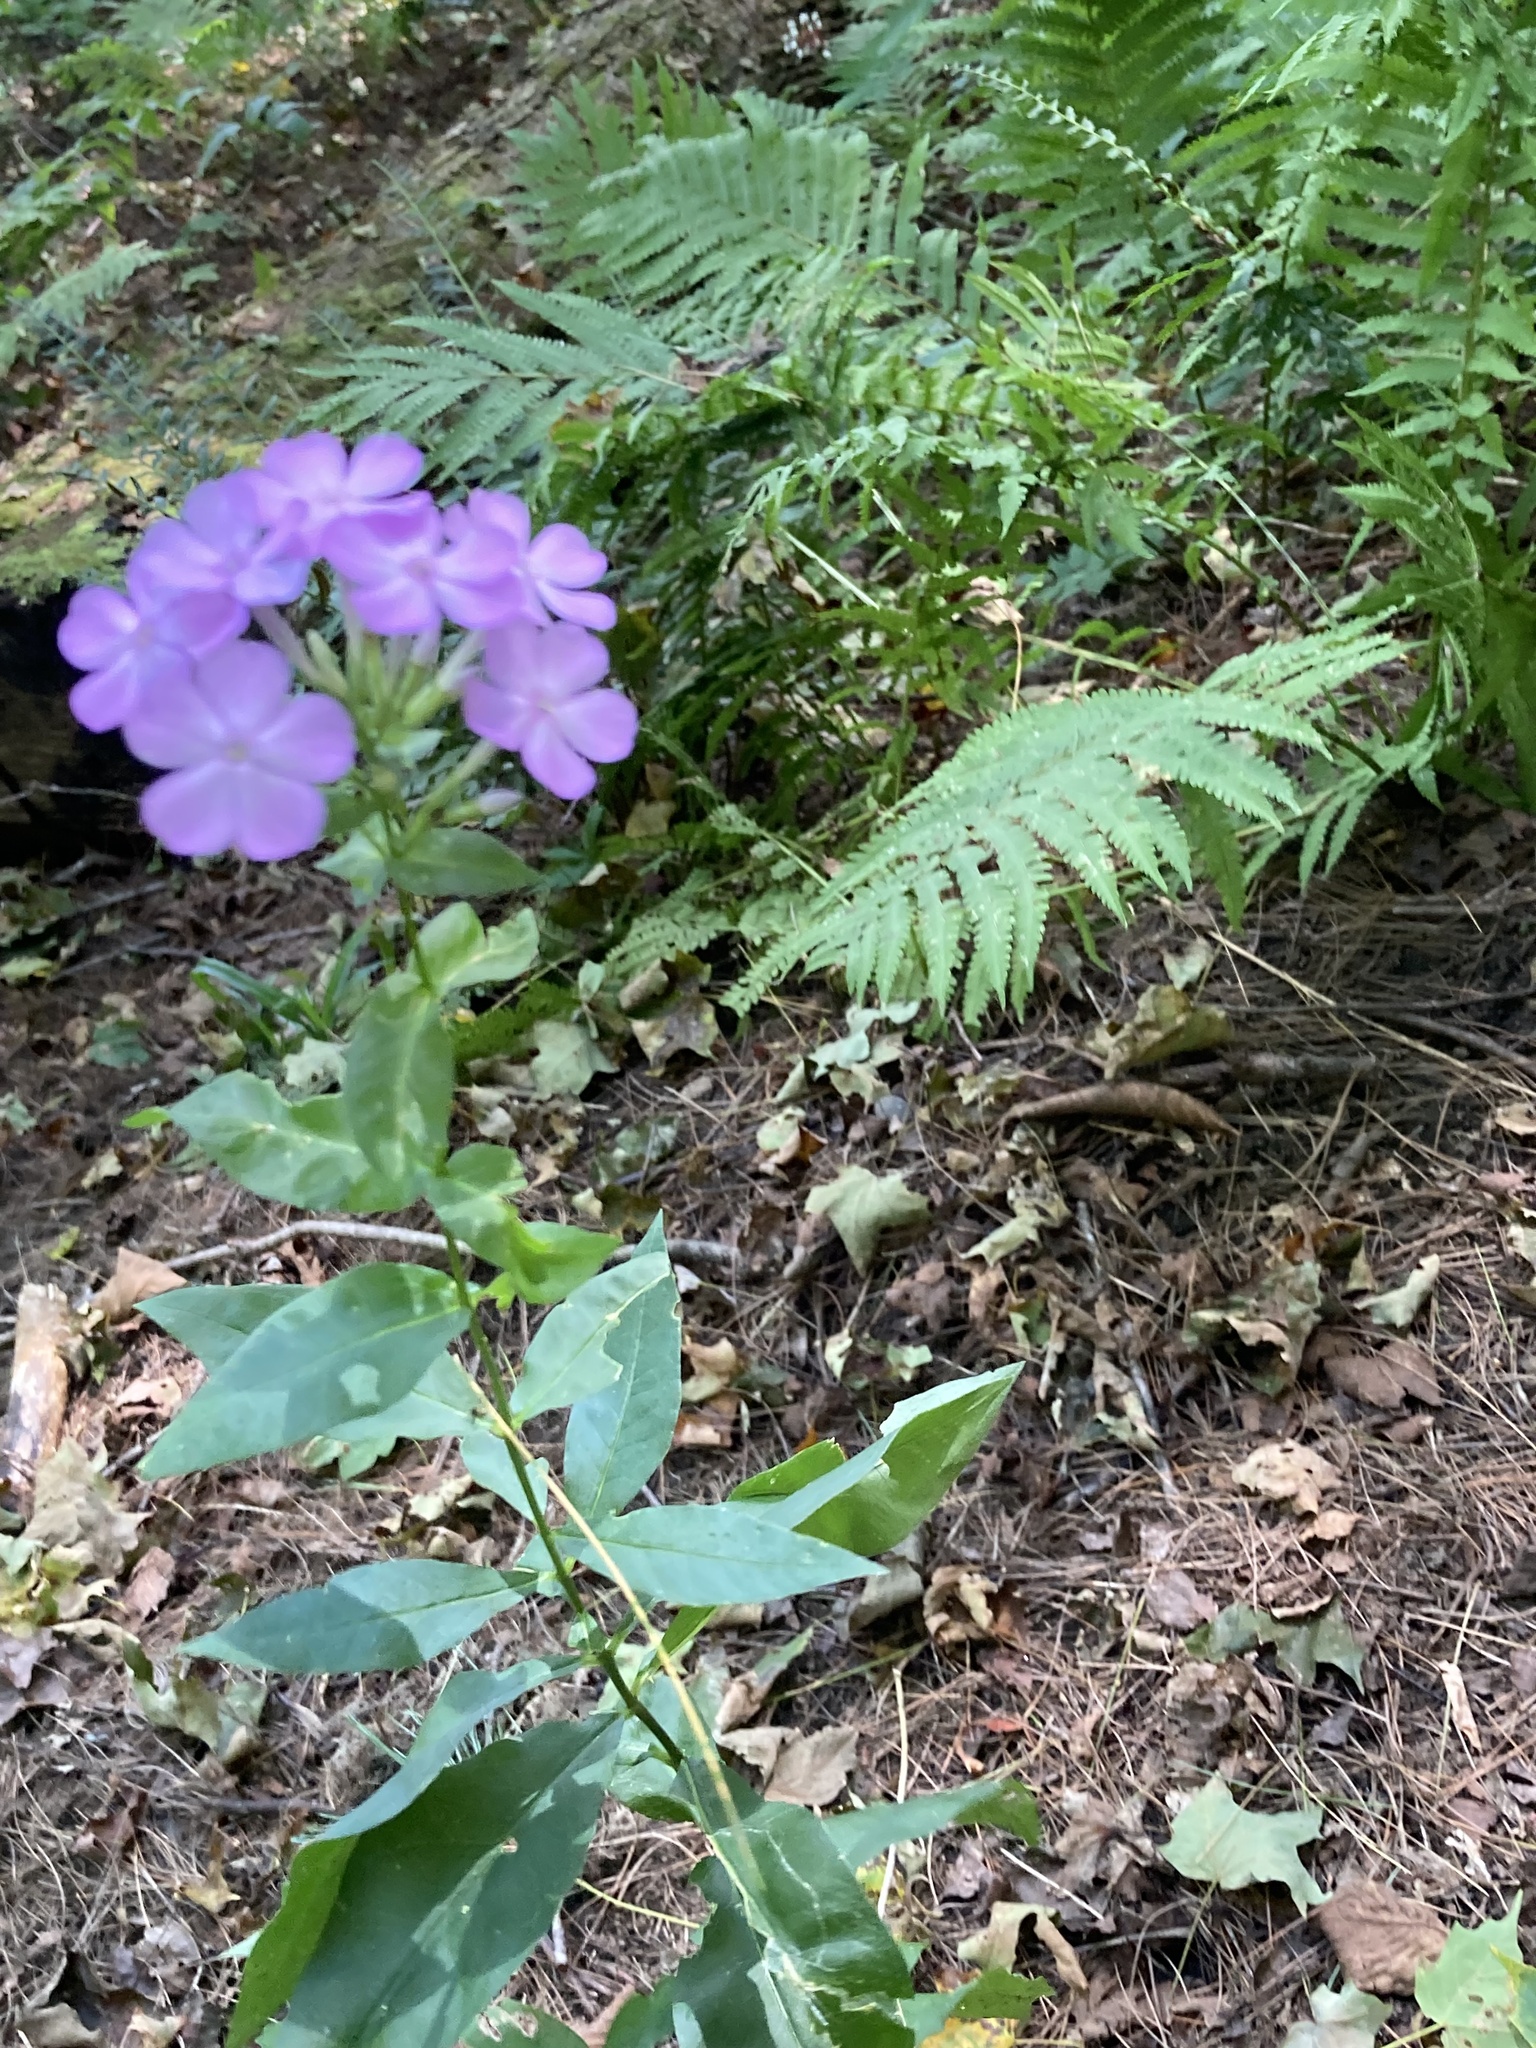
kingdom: Plantae
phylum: Tracheophyta
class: Magnoliopsida
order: Ericales
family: Polemoniaceae
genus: Phlox
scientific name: Phlox paniculata
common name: Fall phlox
